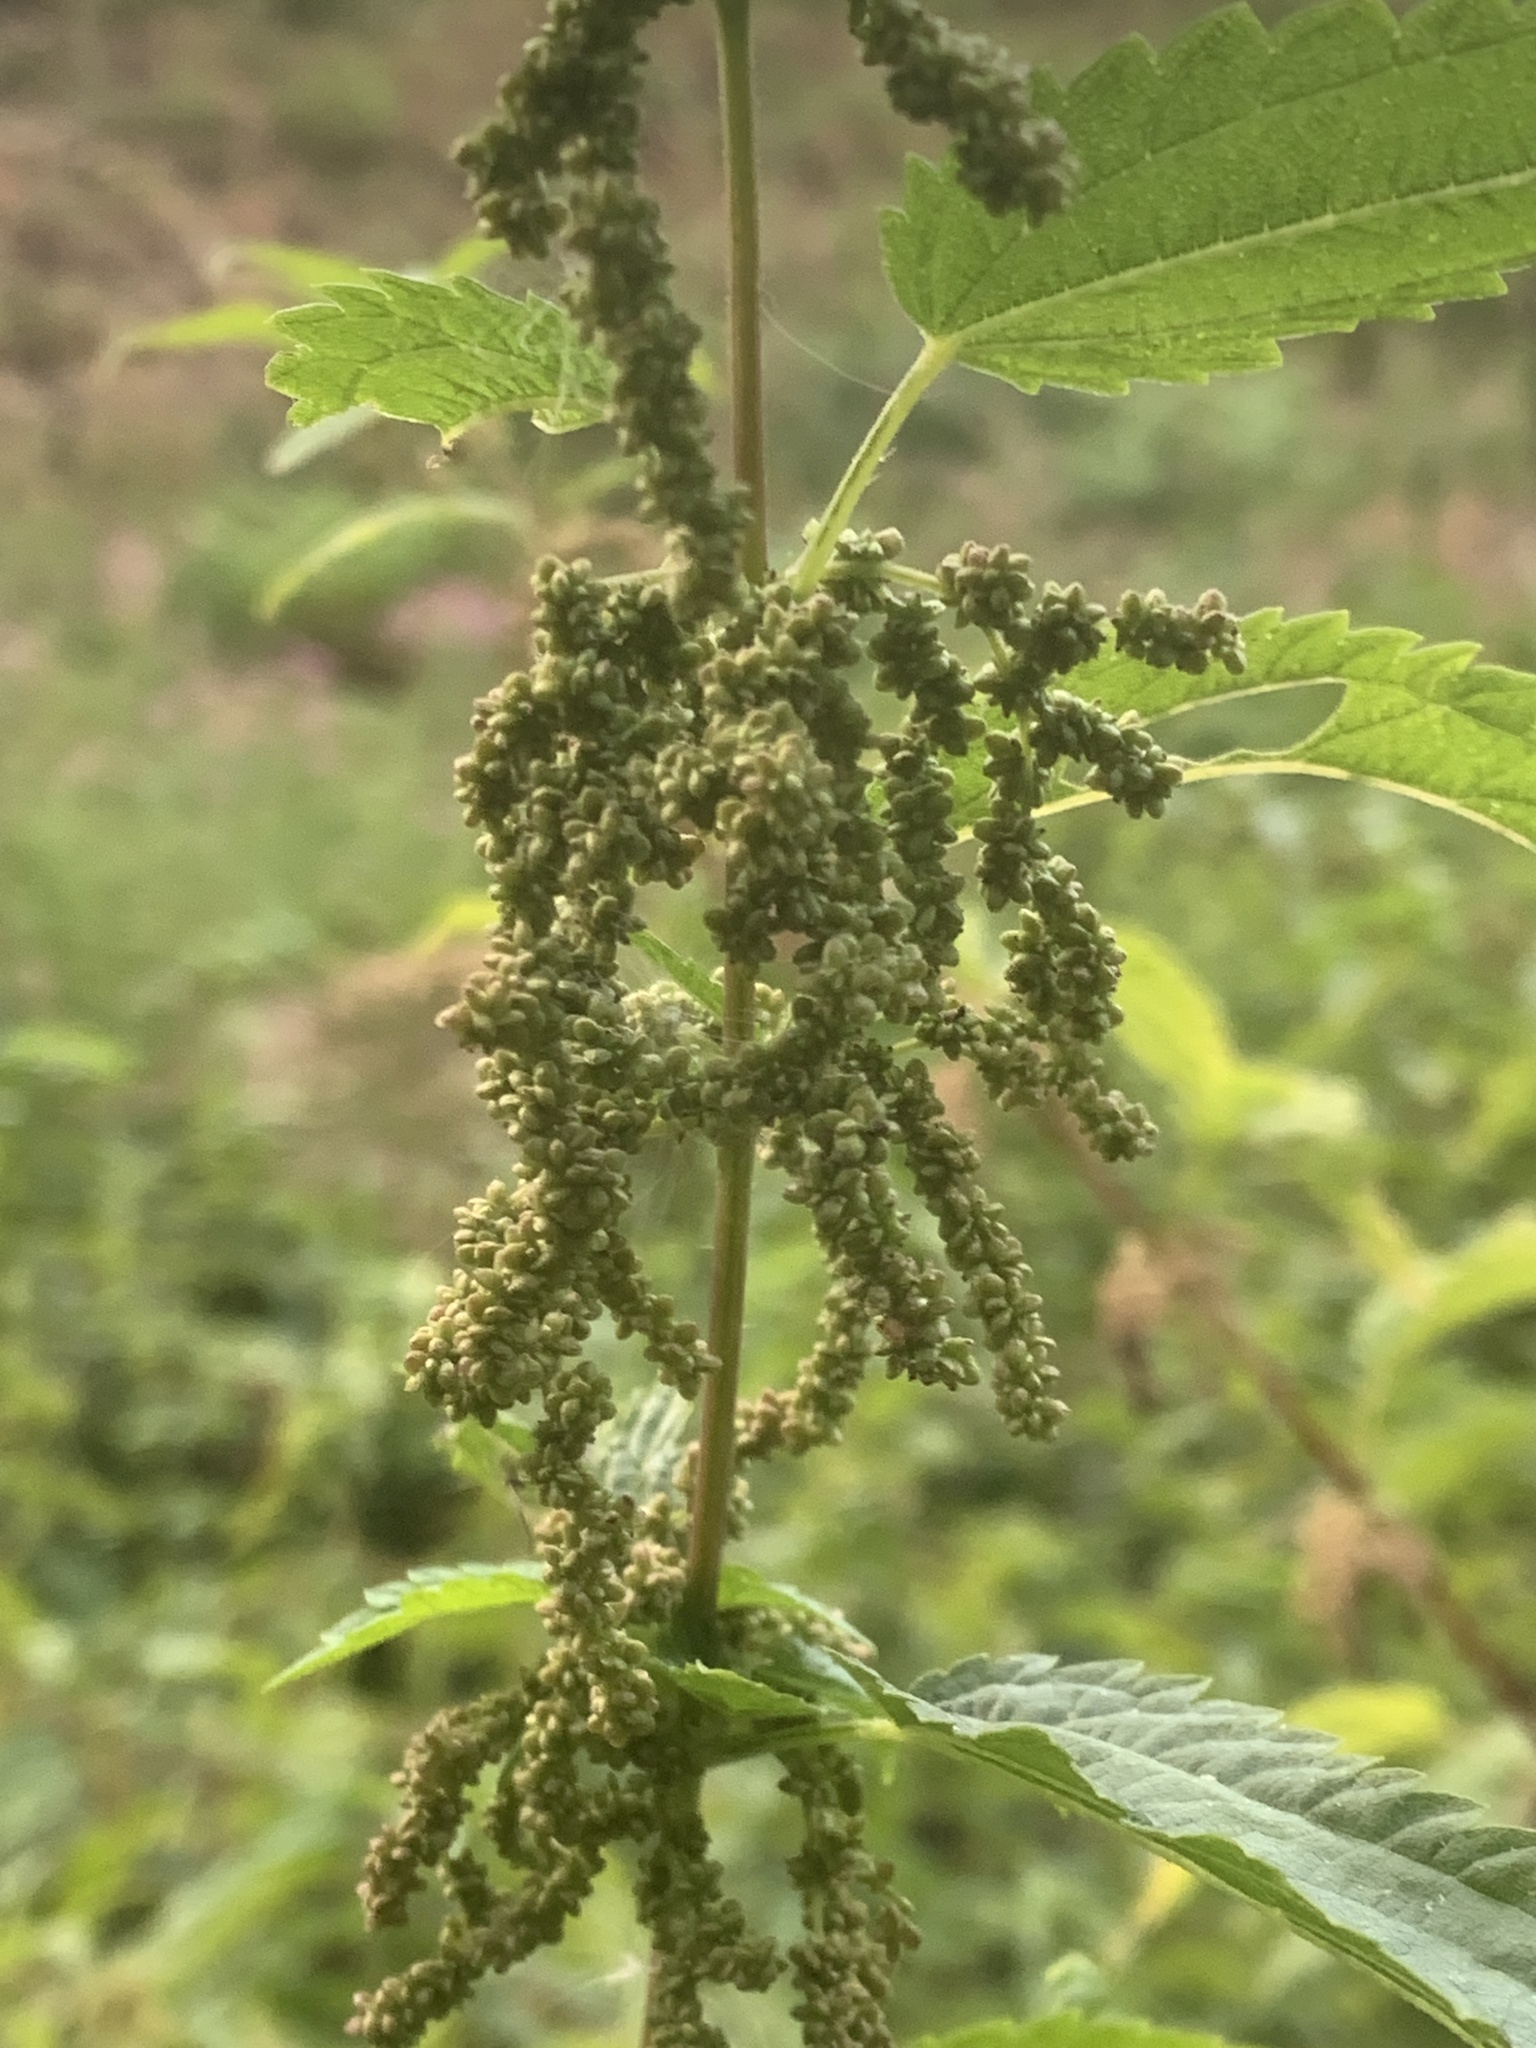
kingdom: Plantae
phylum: Tracheophyta
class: Magnoliopsida
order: Rosales
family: Urticaceae
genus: Urtica
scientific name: Urtica gracilis
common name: Slender stinging nettle
